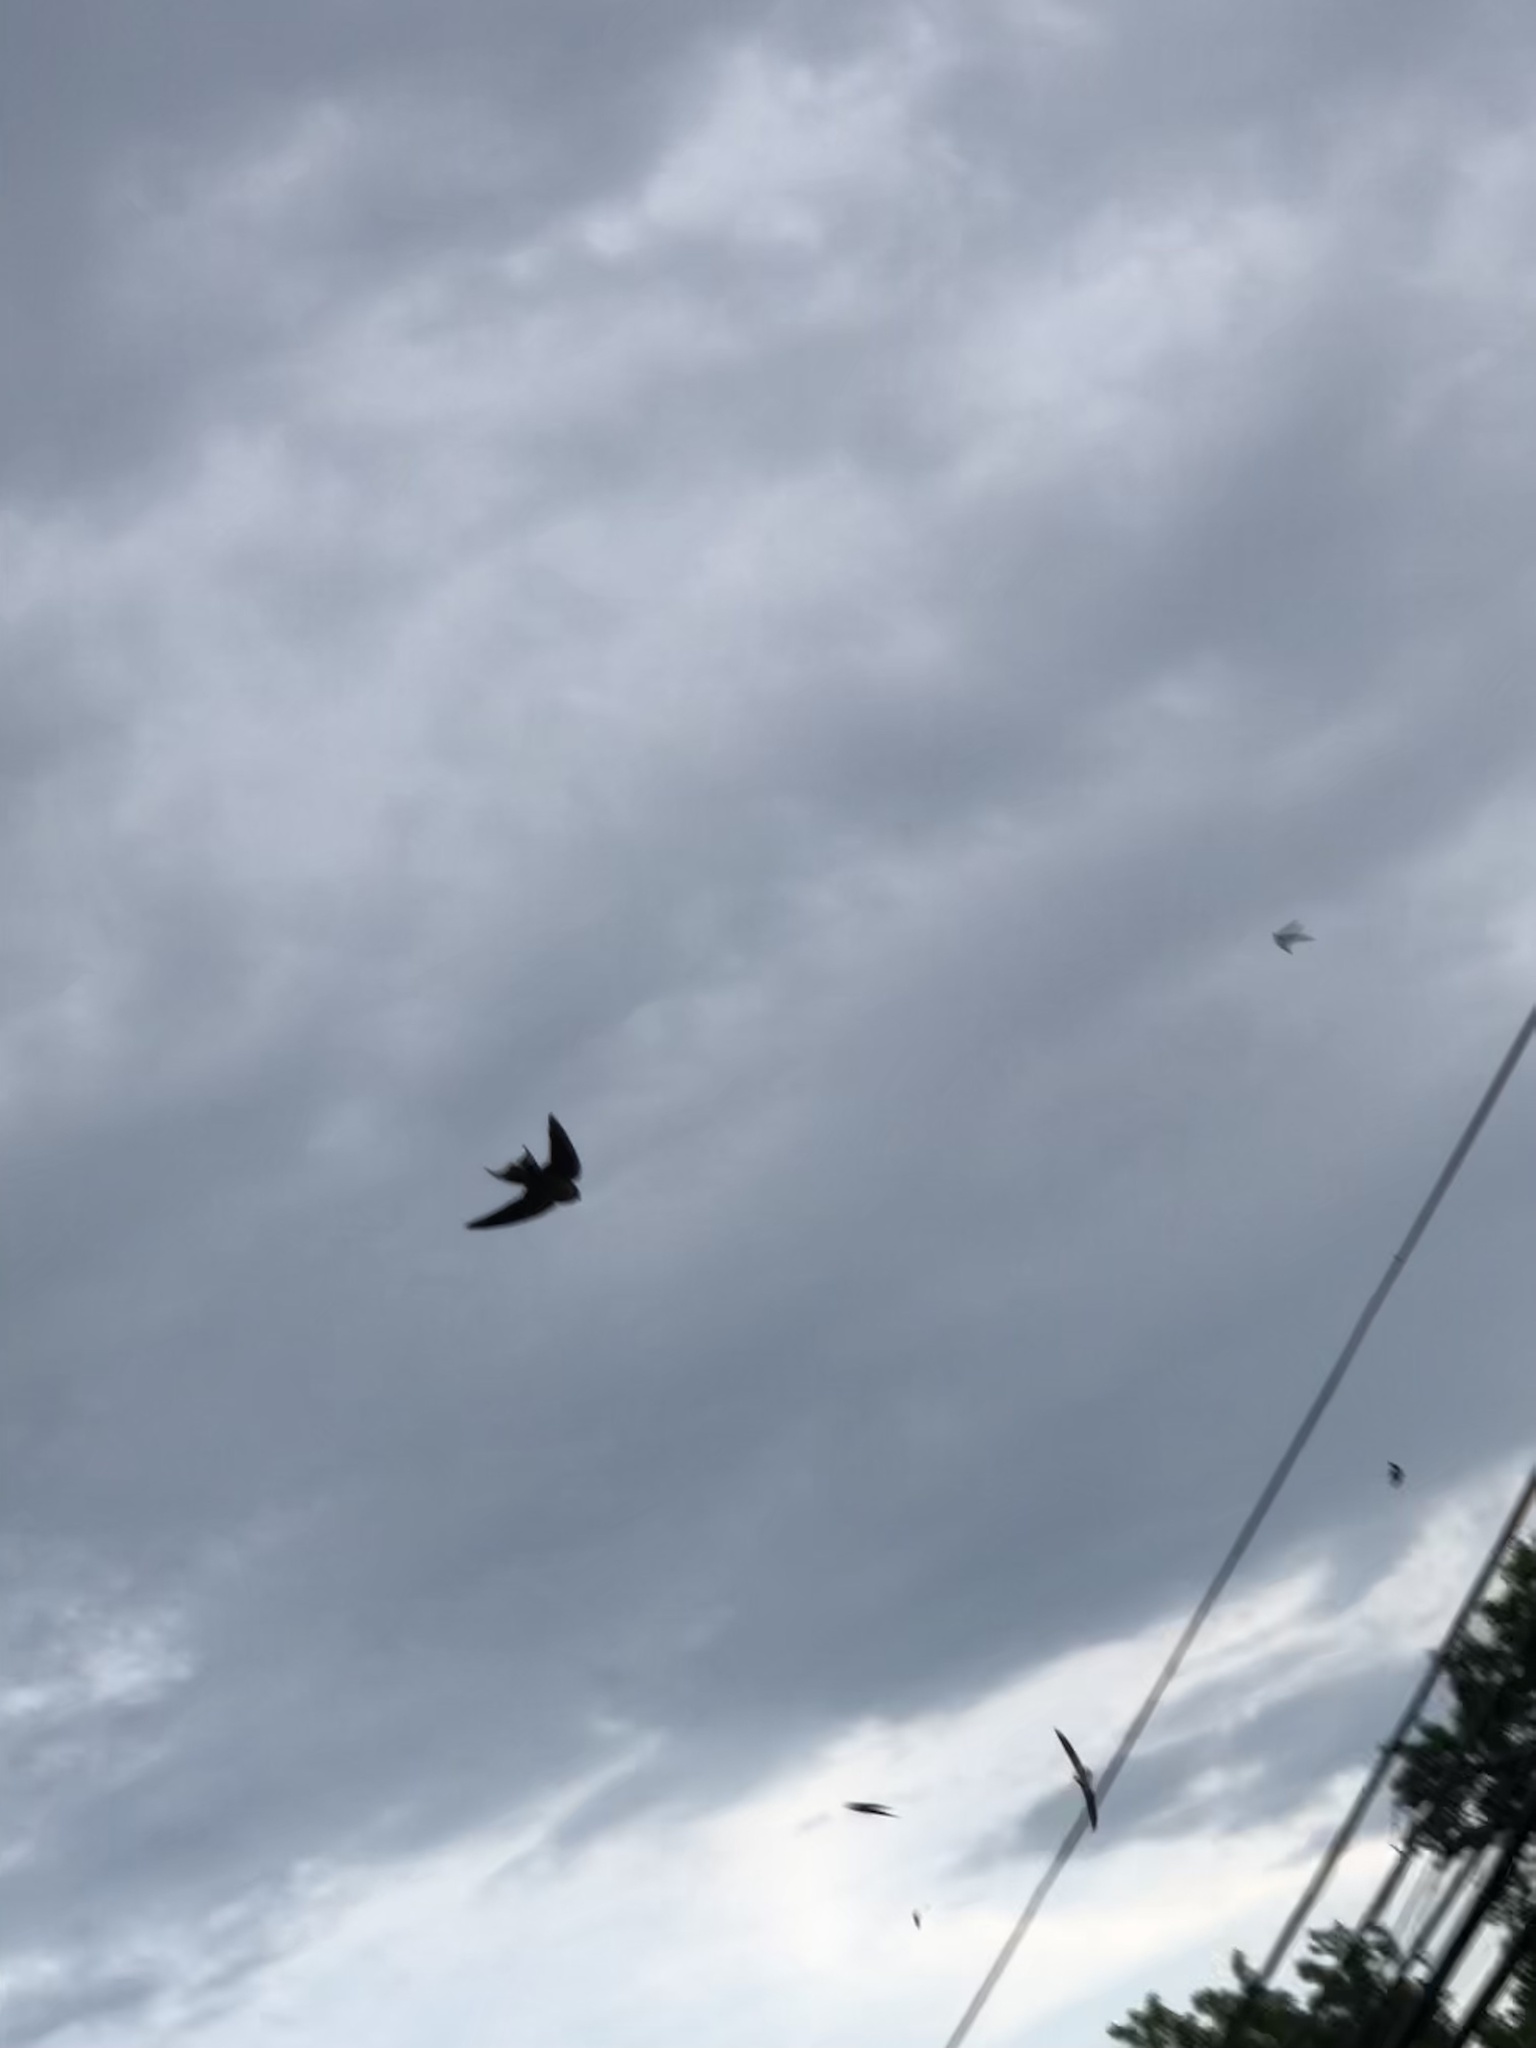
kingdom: Animalia
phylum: Chordata
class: Aves
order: Passeriformes
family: Hirundinidae
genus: Hirundo
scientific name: Hirundo rustica
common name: Barn swallow
